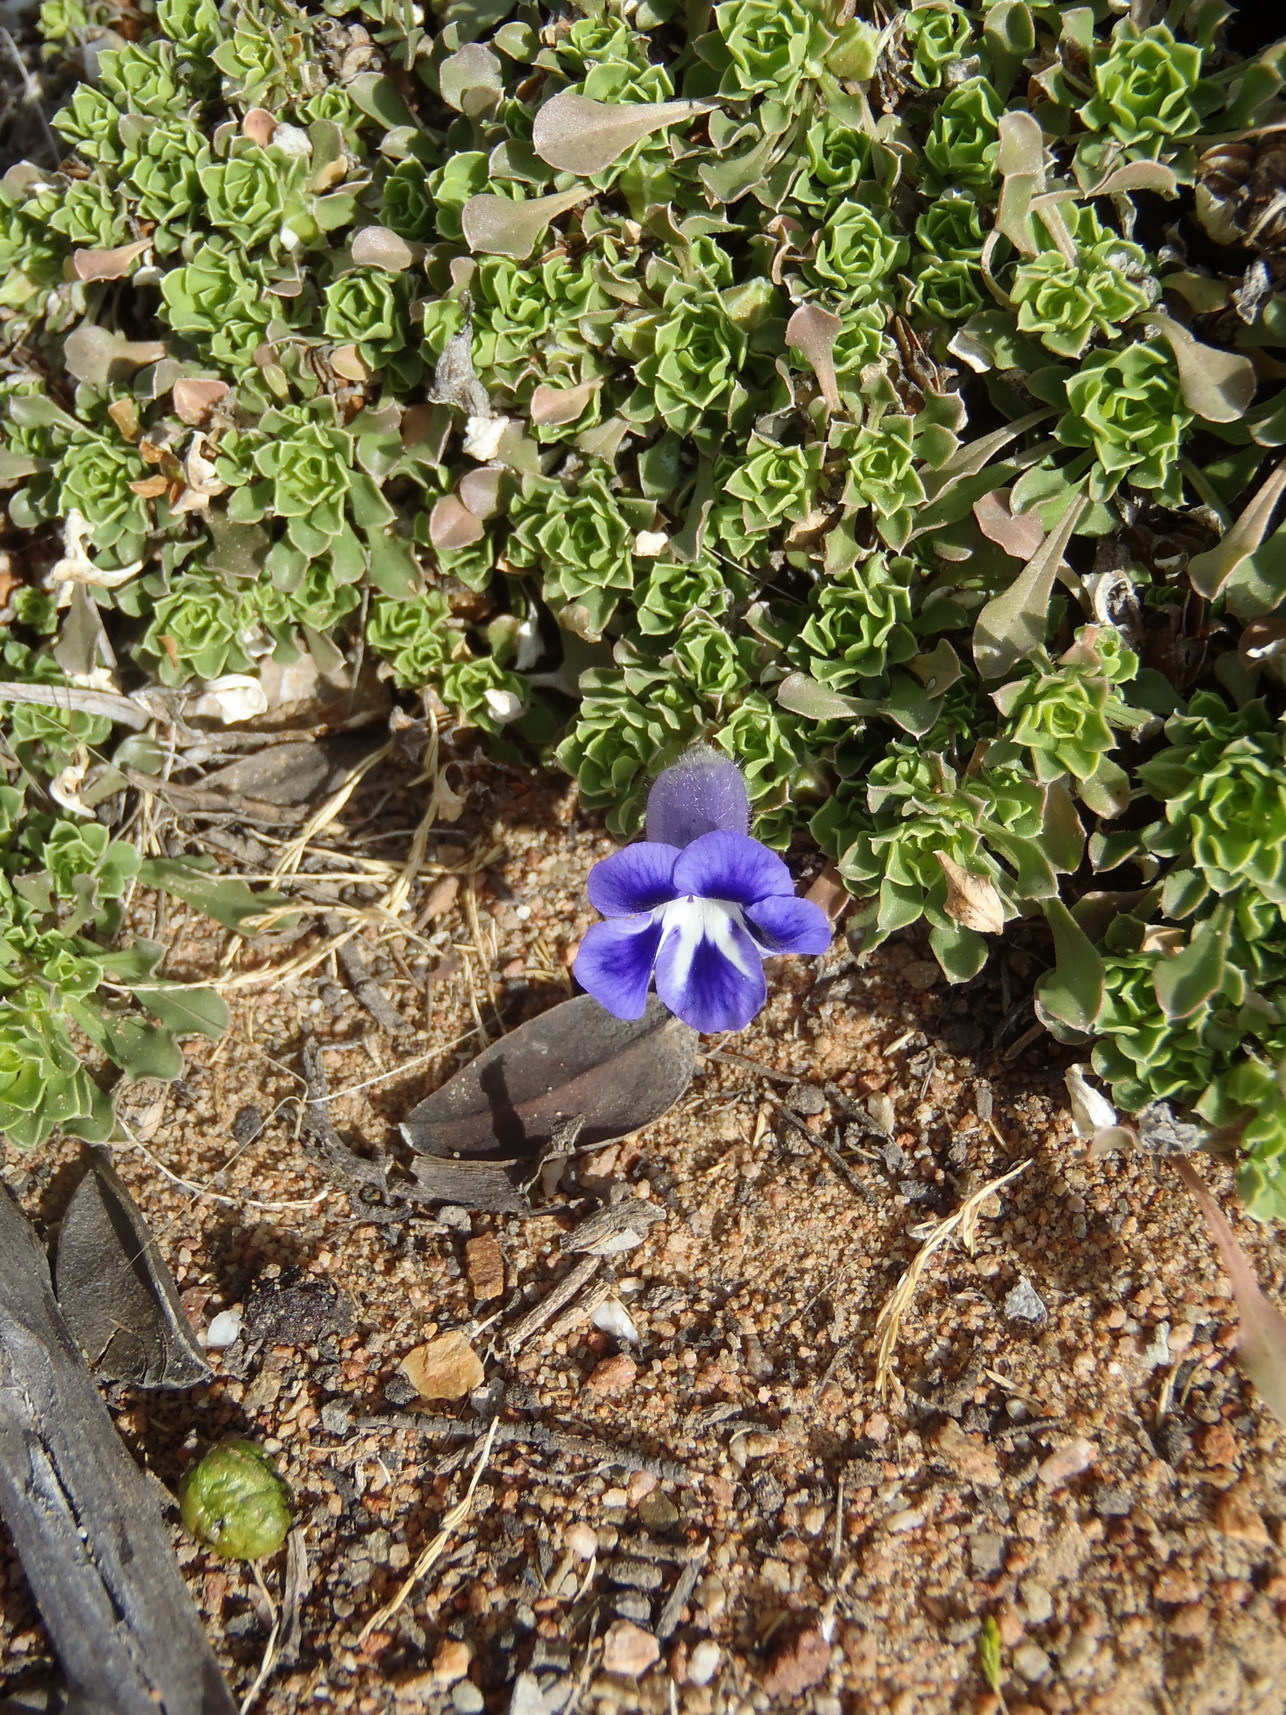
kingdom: Plantae
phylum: Tracheophyta
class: Magnoliopsida
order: Lamiales
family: Scrophulariaceae
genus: Aptosimum
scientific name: Aptosimum procumbens
